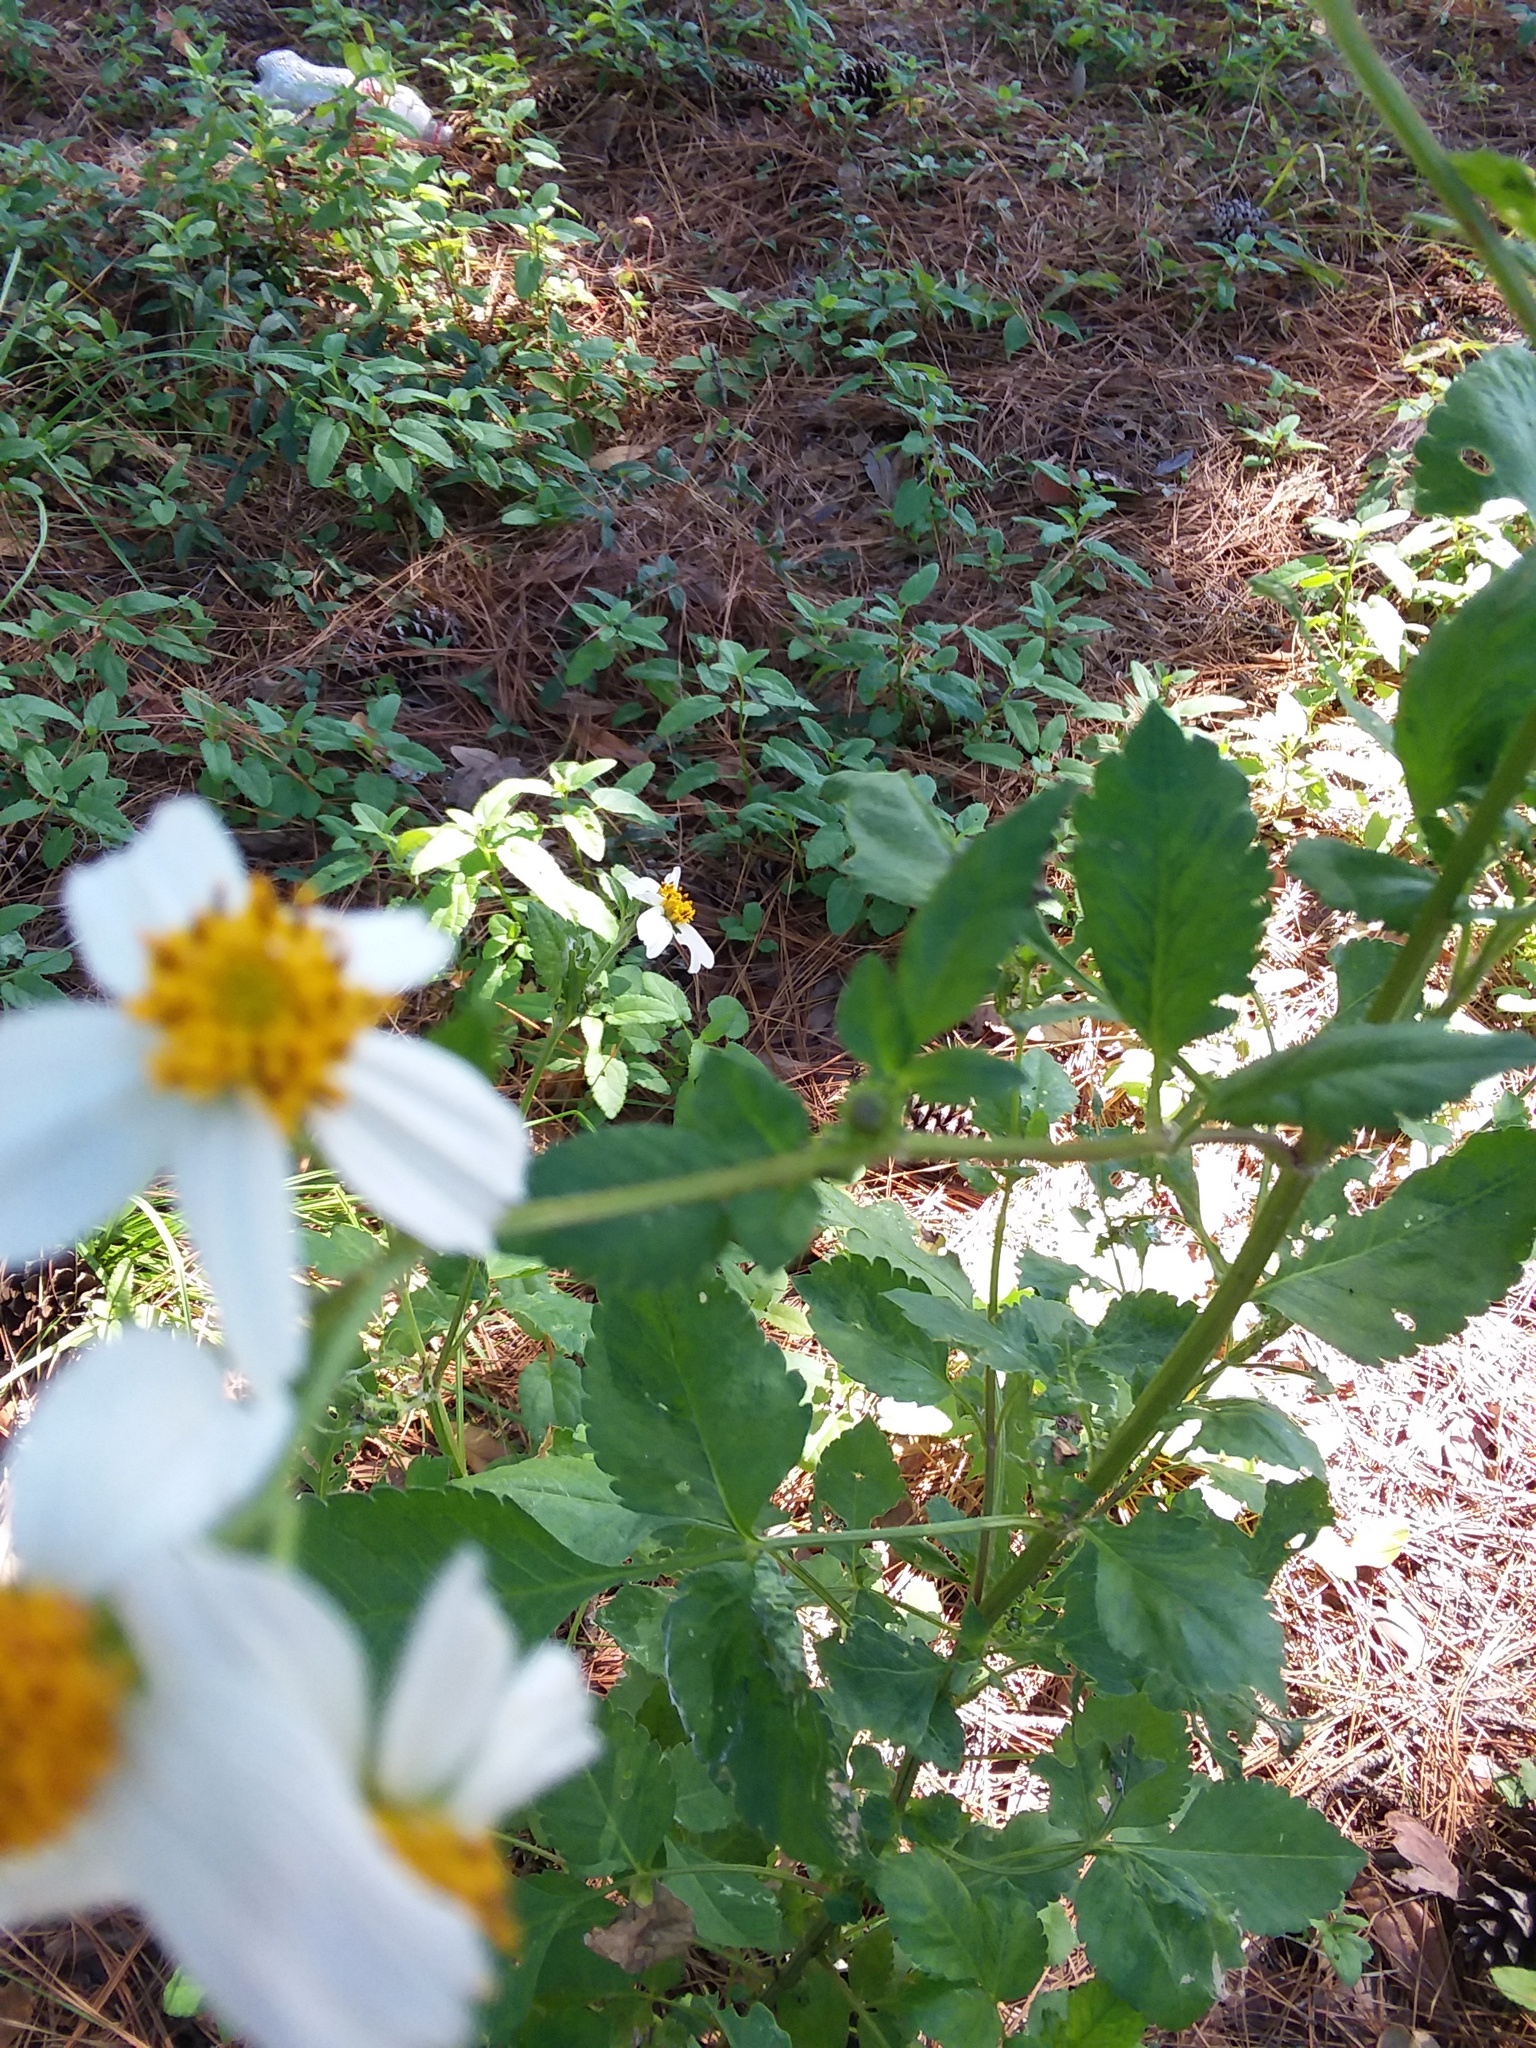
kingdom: Plantae
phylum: Tracheophyta
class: Magnoliopsida
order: Asterales
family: Asteraceae
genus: Bidens
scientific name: Bidens alba
